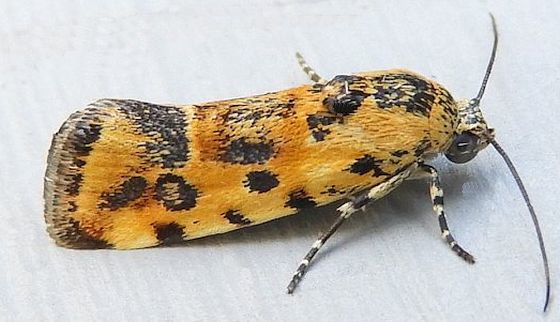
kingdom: Animalia
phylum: Arthropoda
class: Insecta
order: Lepidoptera
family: Noctuidae
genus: Spragueia
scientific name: Spragueia perstructana
